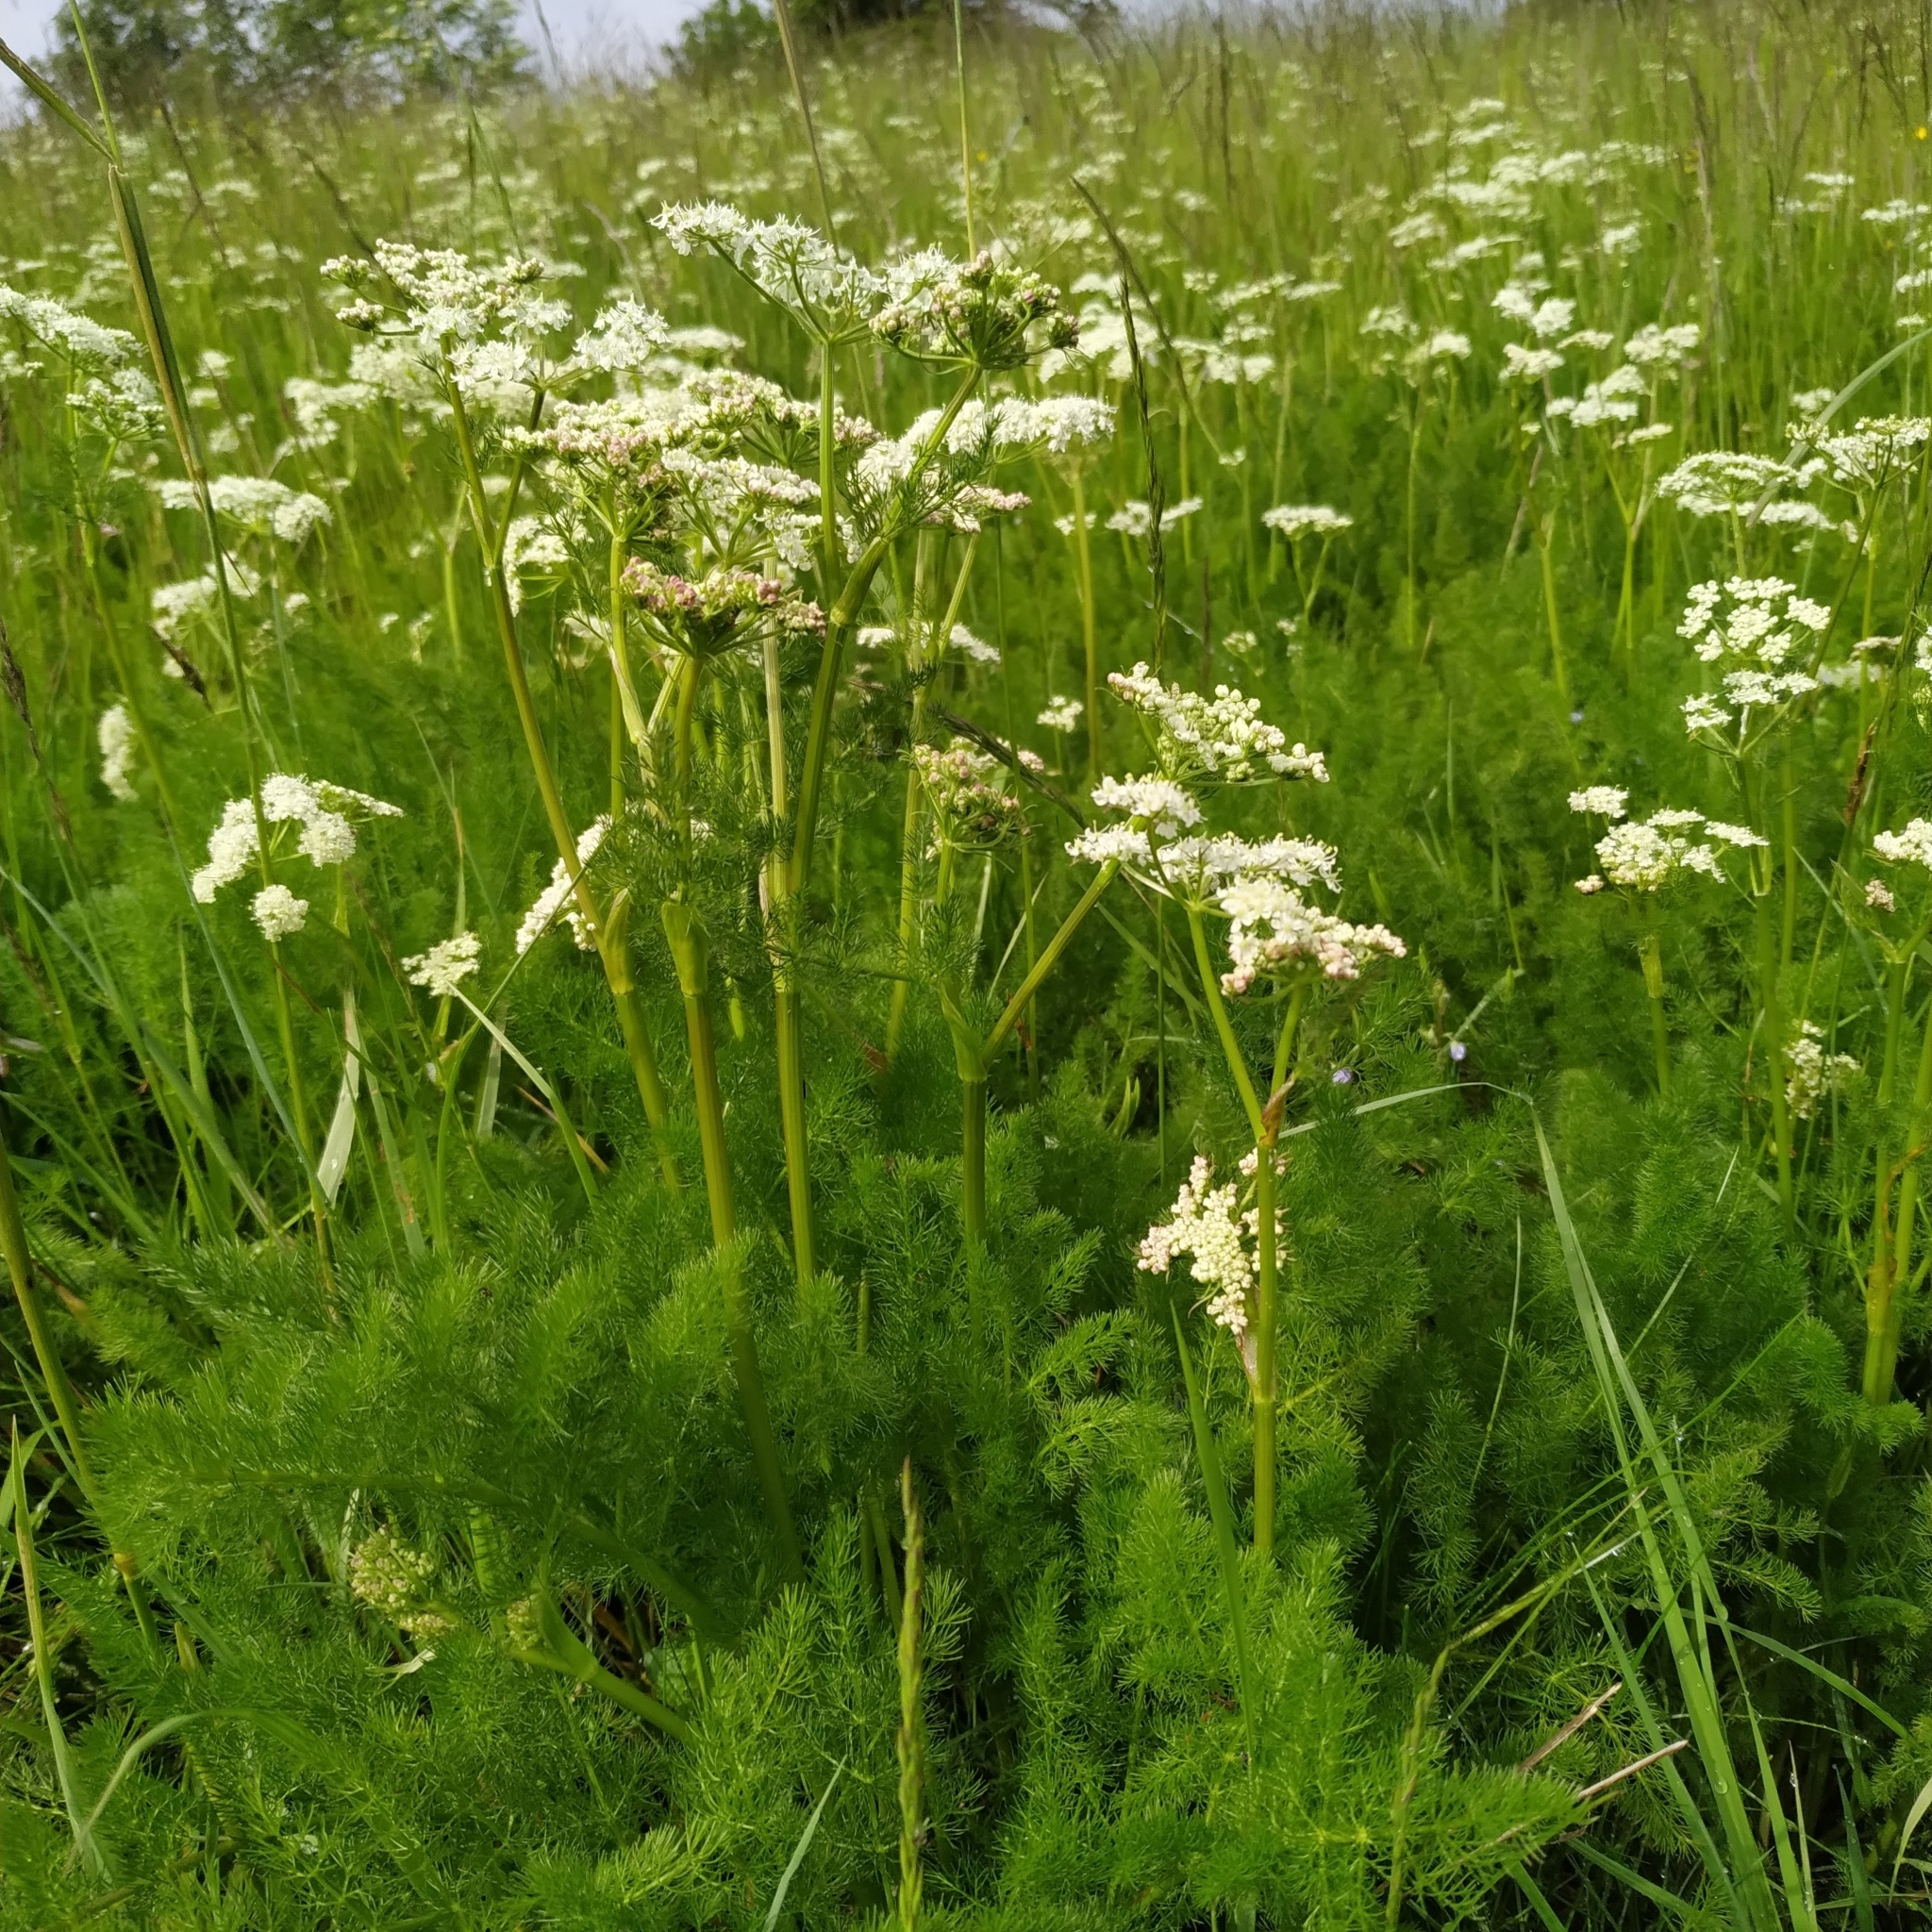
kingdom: Plantae
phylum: Tracheophyta
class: Magnoliopsida
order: Apiales
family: Apiaceae
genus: Meum
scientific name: Meum athamanticum
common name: Spignel
